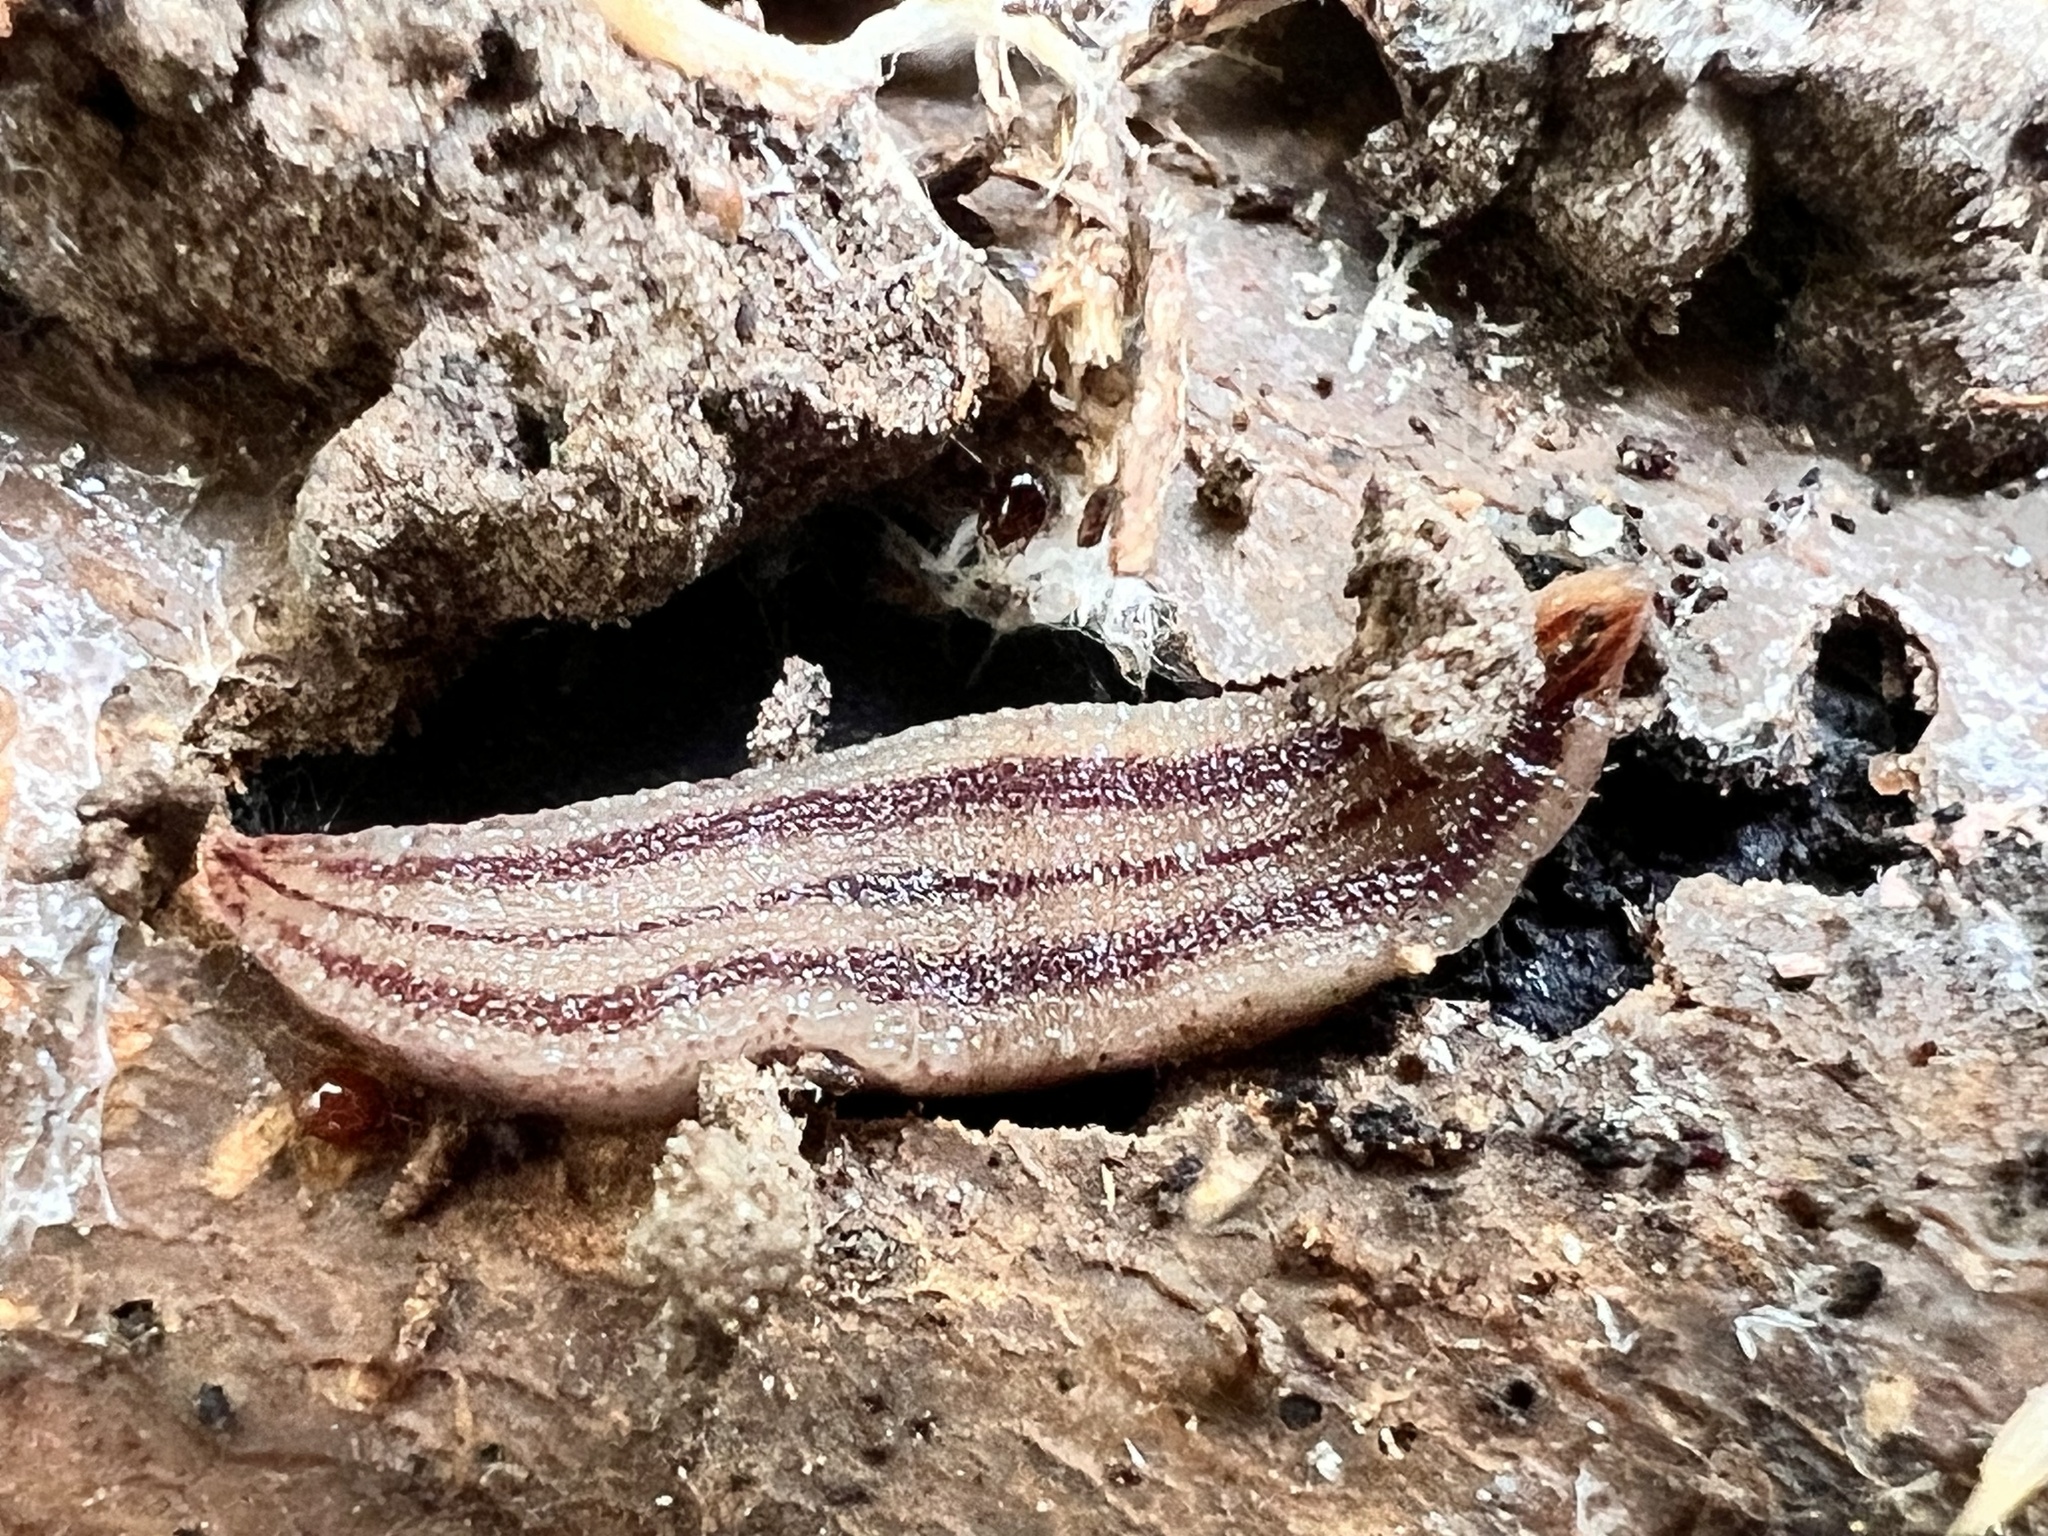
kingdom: Animalia
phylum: Platyhelminthes
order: Tricladida
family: Geoplanidae
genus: Artioposthia
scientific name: Artioposthia
